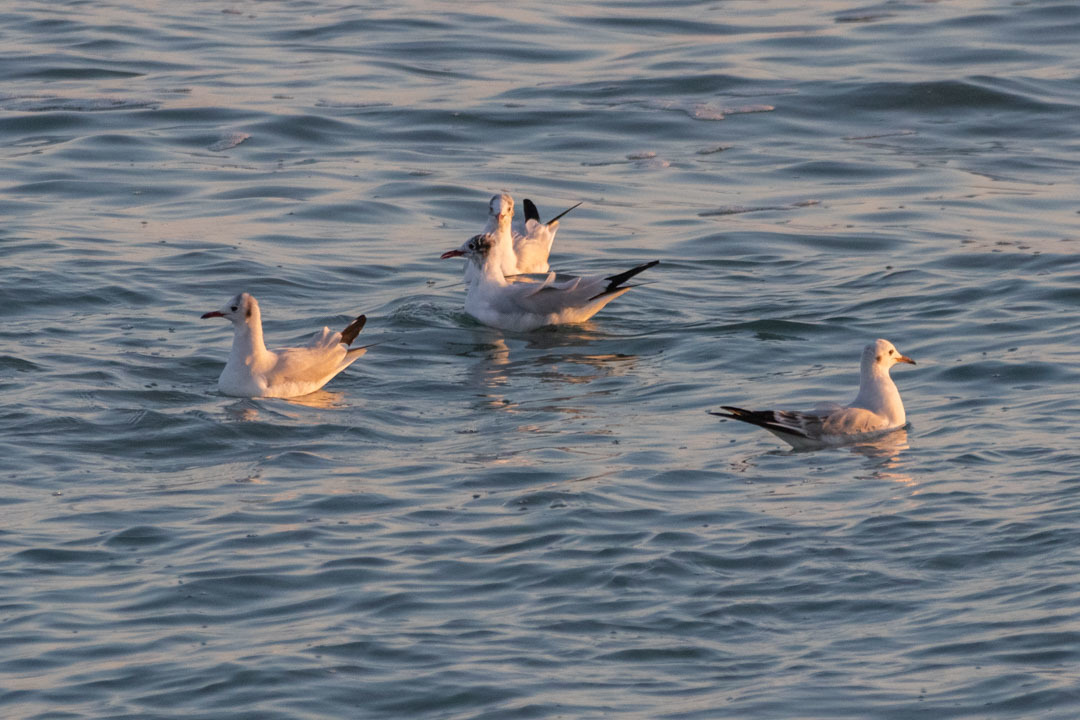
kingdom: Animalia
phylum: Chordata
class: Aves
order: Charadriiformes
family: Laridae
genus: Chroicocephalus
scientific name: Chroicocephalus ridibundus
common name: Black-headed gull
